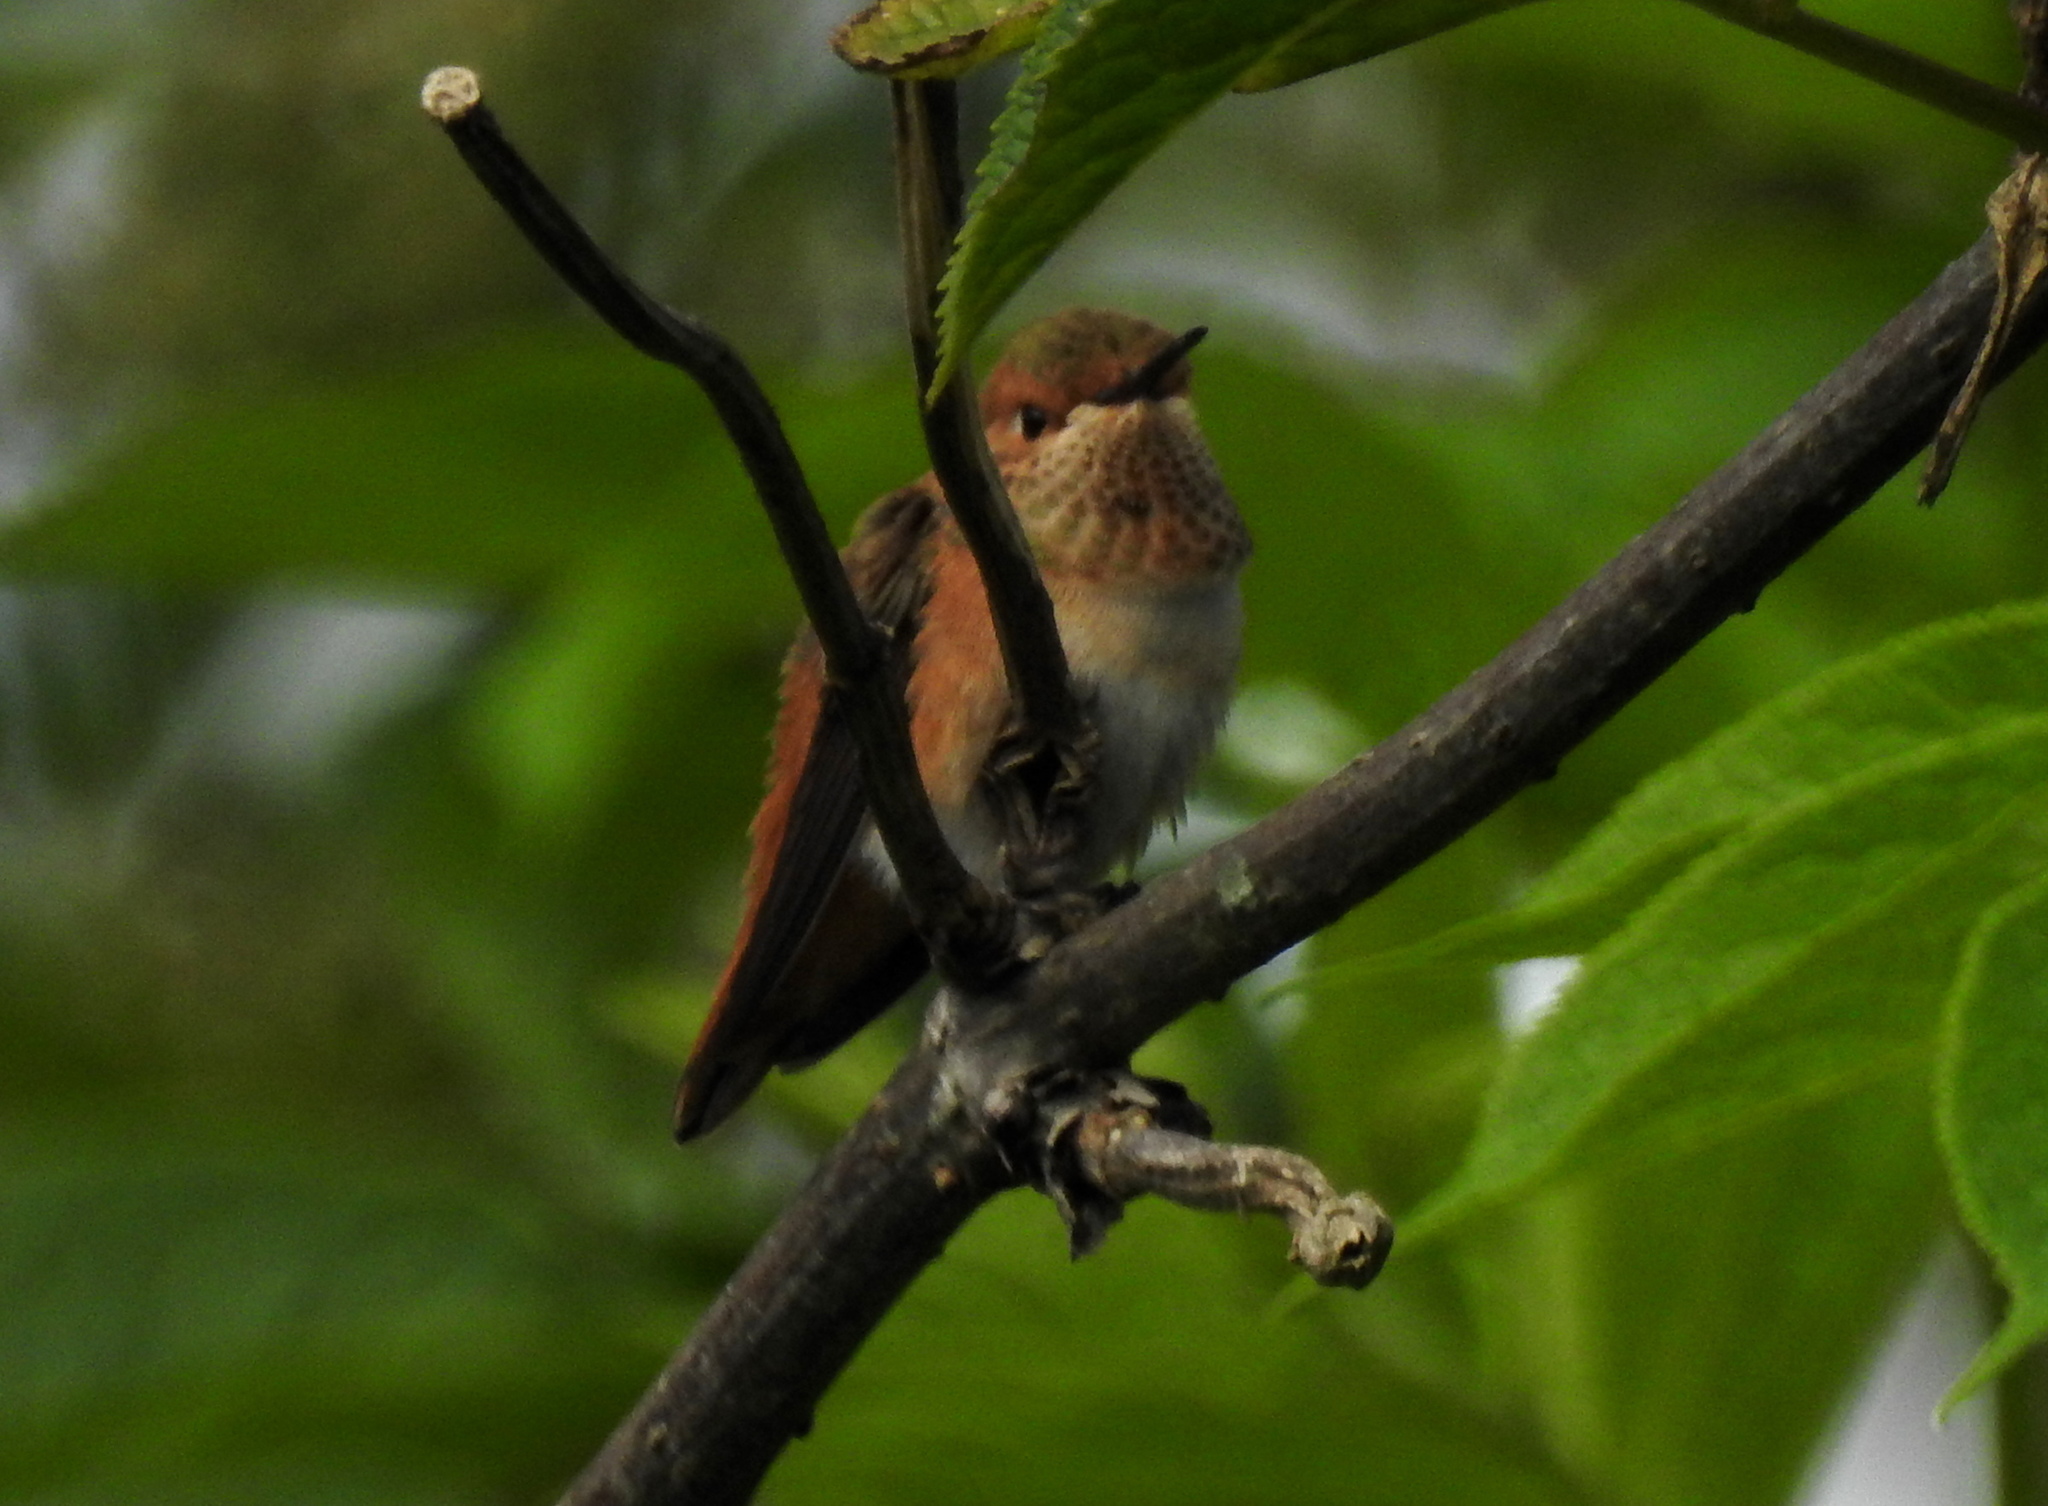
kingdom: Animalia
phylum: Chordata
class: Aves
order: Apodiformes
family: Trochilidae
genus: Selasphorus
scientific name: Selasphorus sasin
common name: Allen's hummingbird
